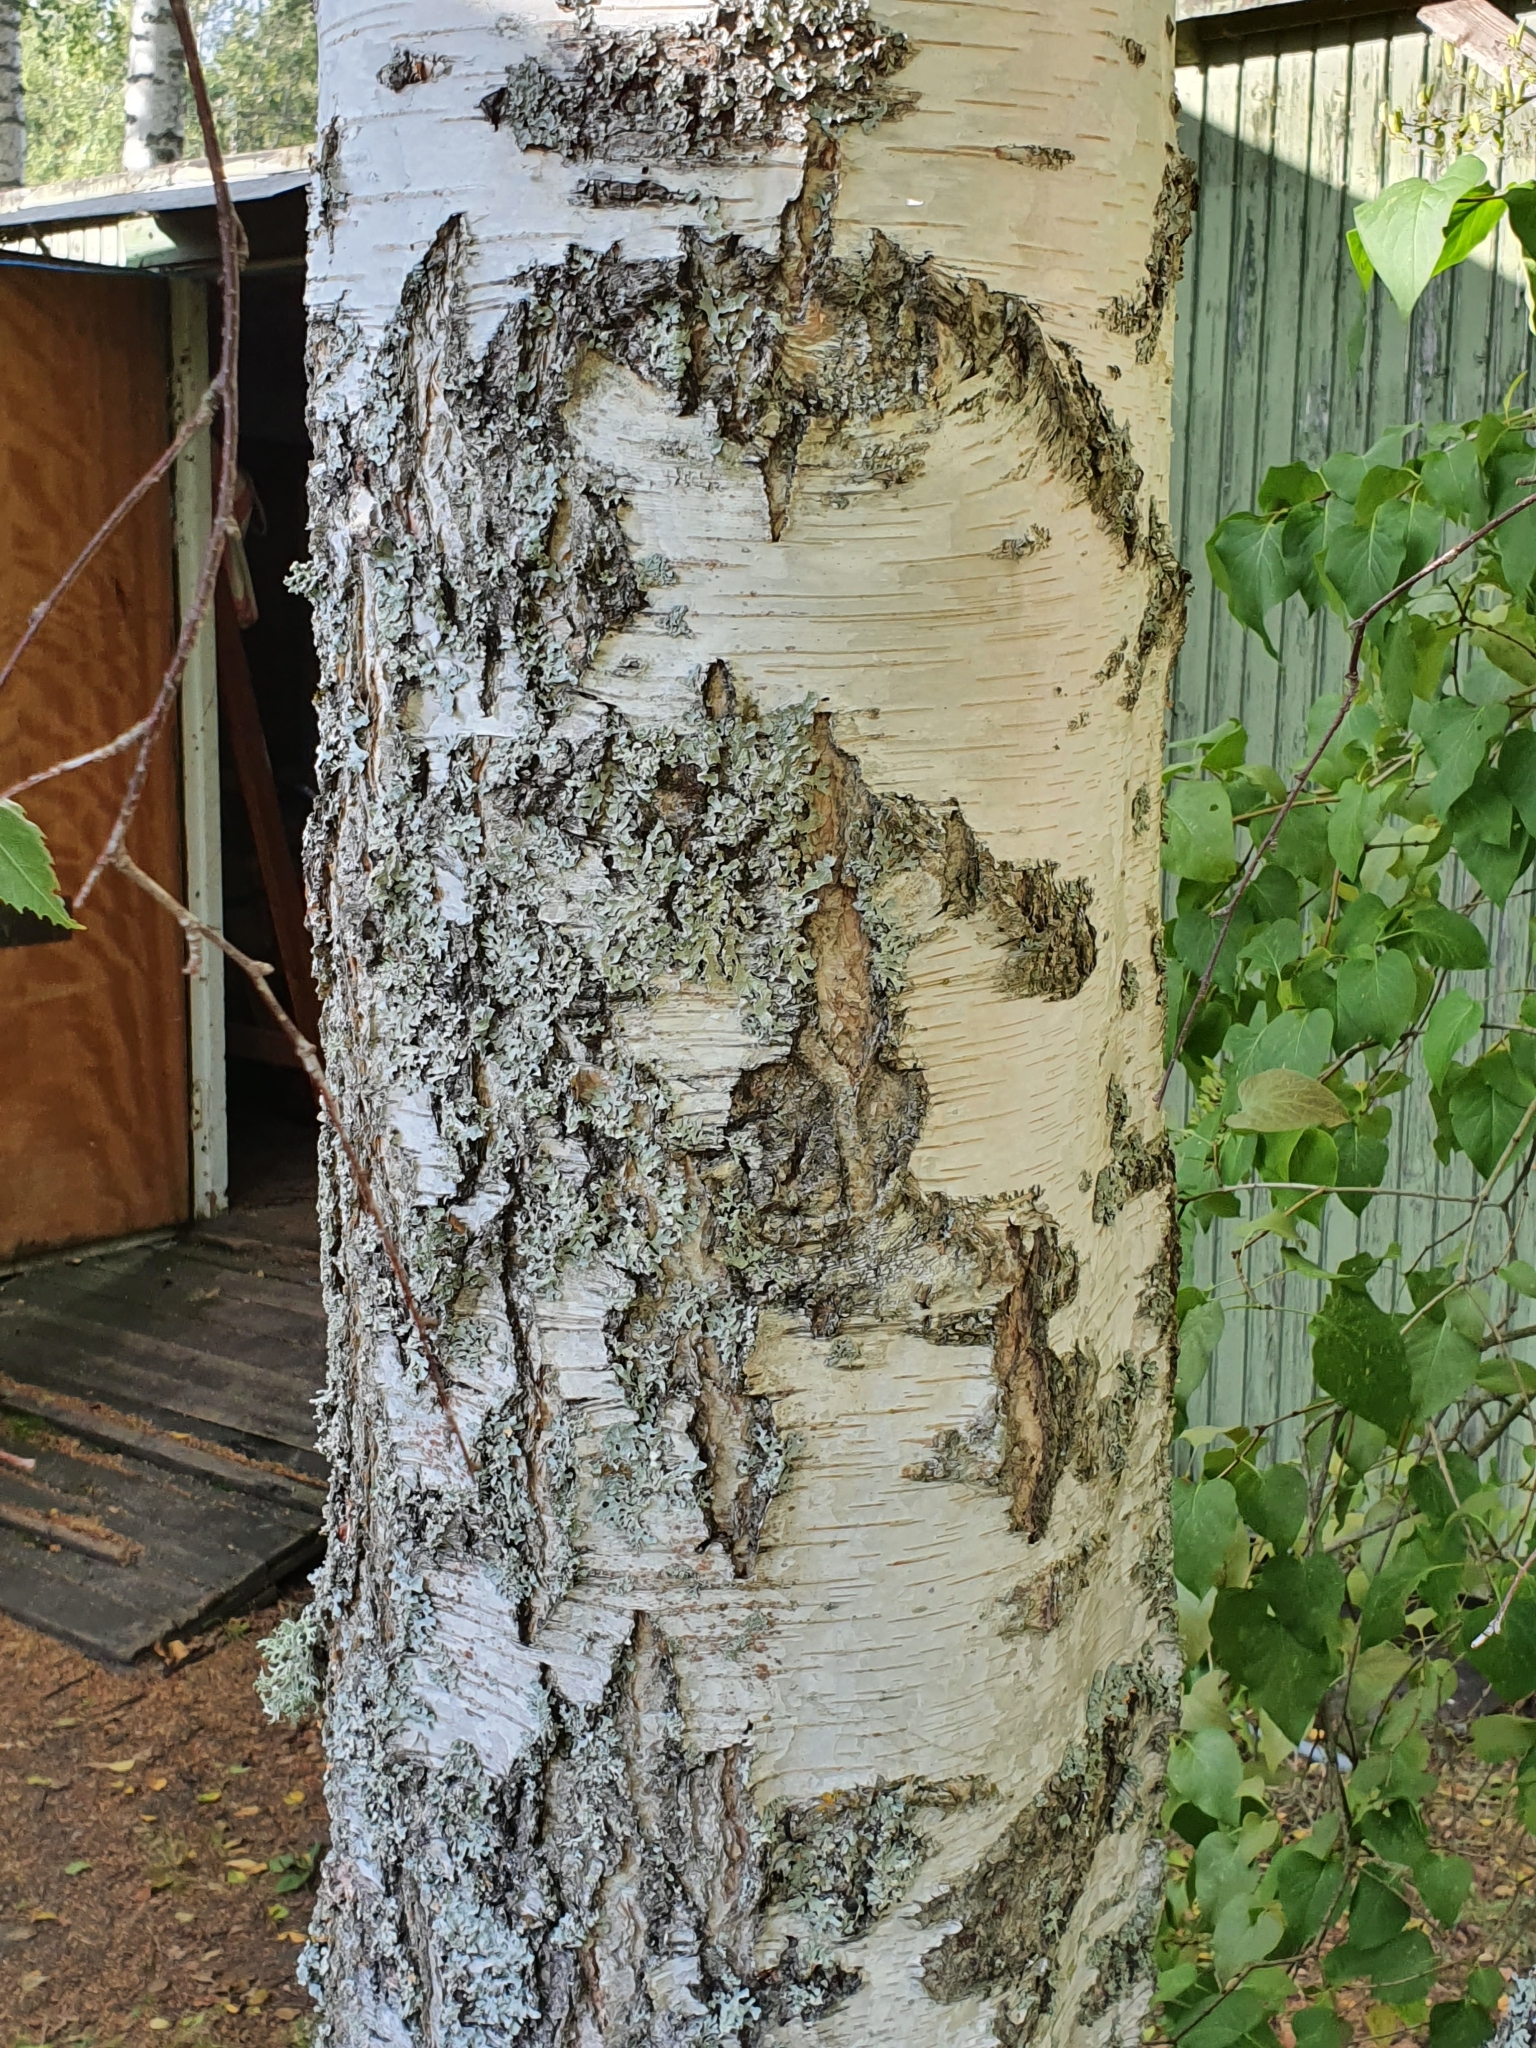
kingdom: Plantae
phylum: Tracheophyta
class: Magnoliopsida
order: Fagales
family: Betulaceae
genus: Betula
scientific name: Betula pendula
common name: Silver birch
